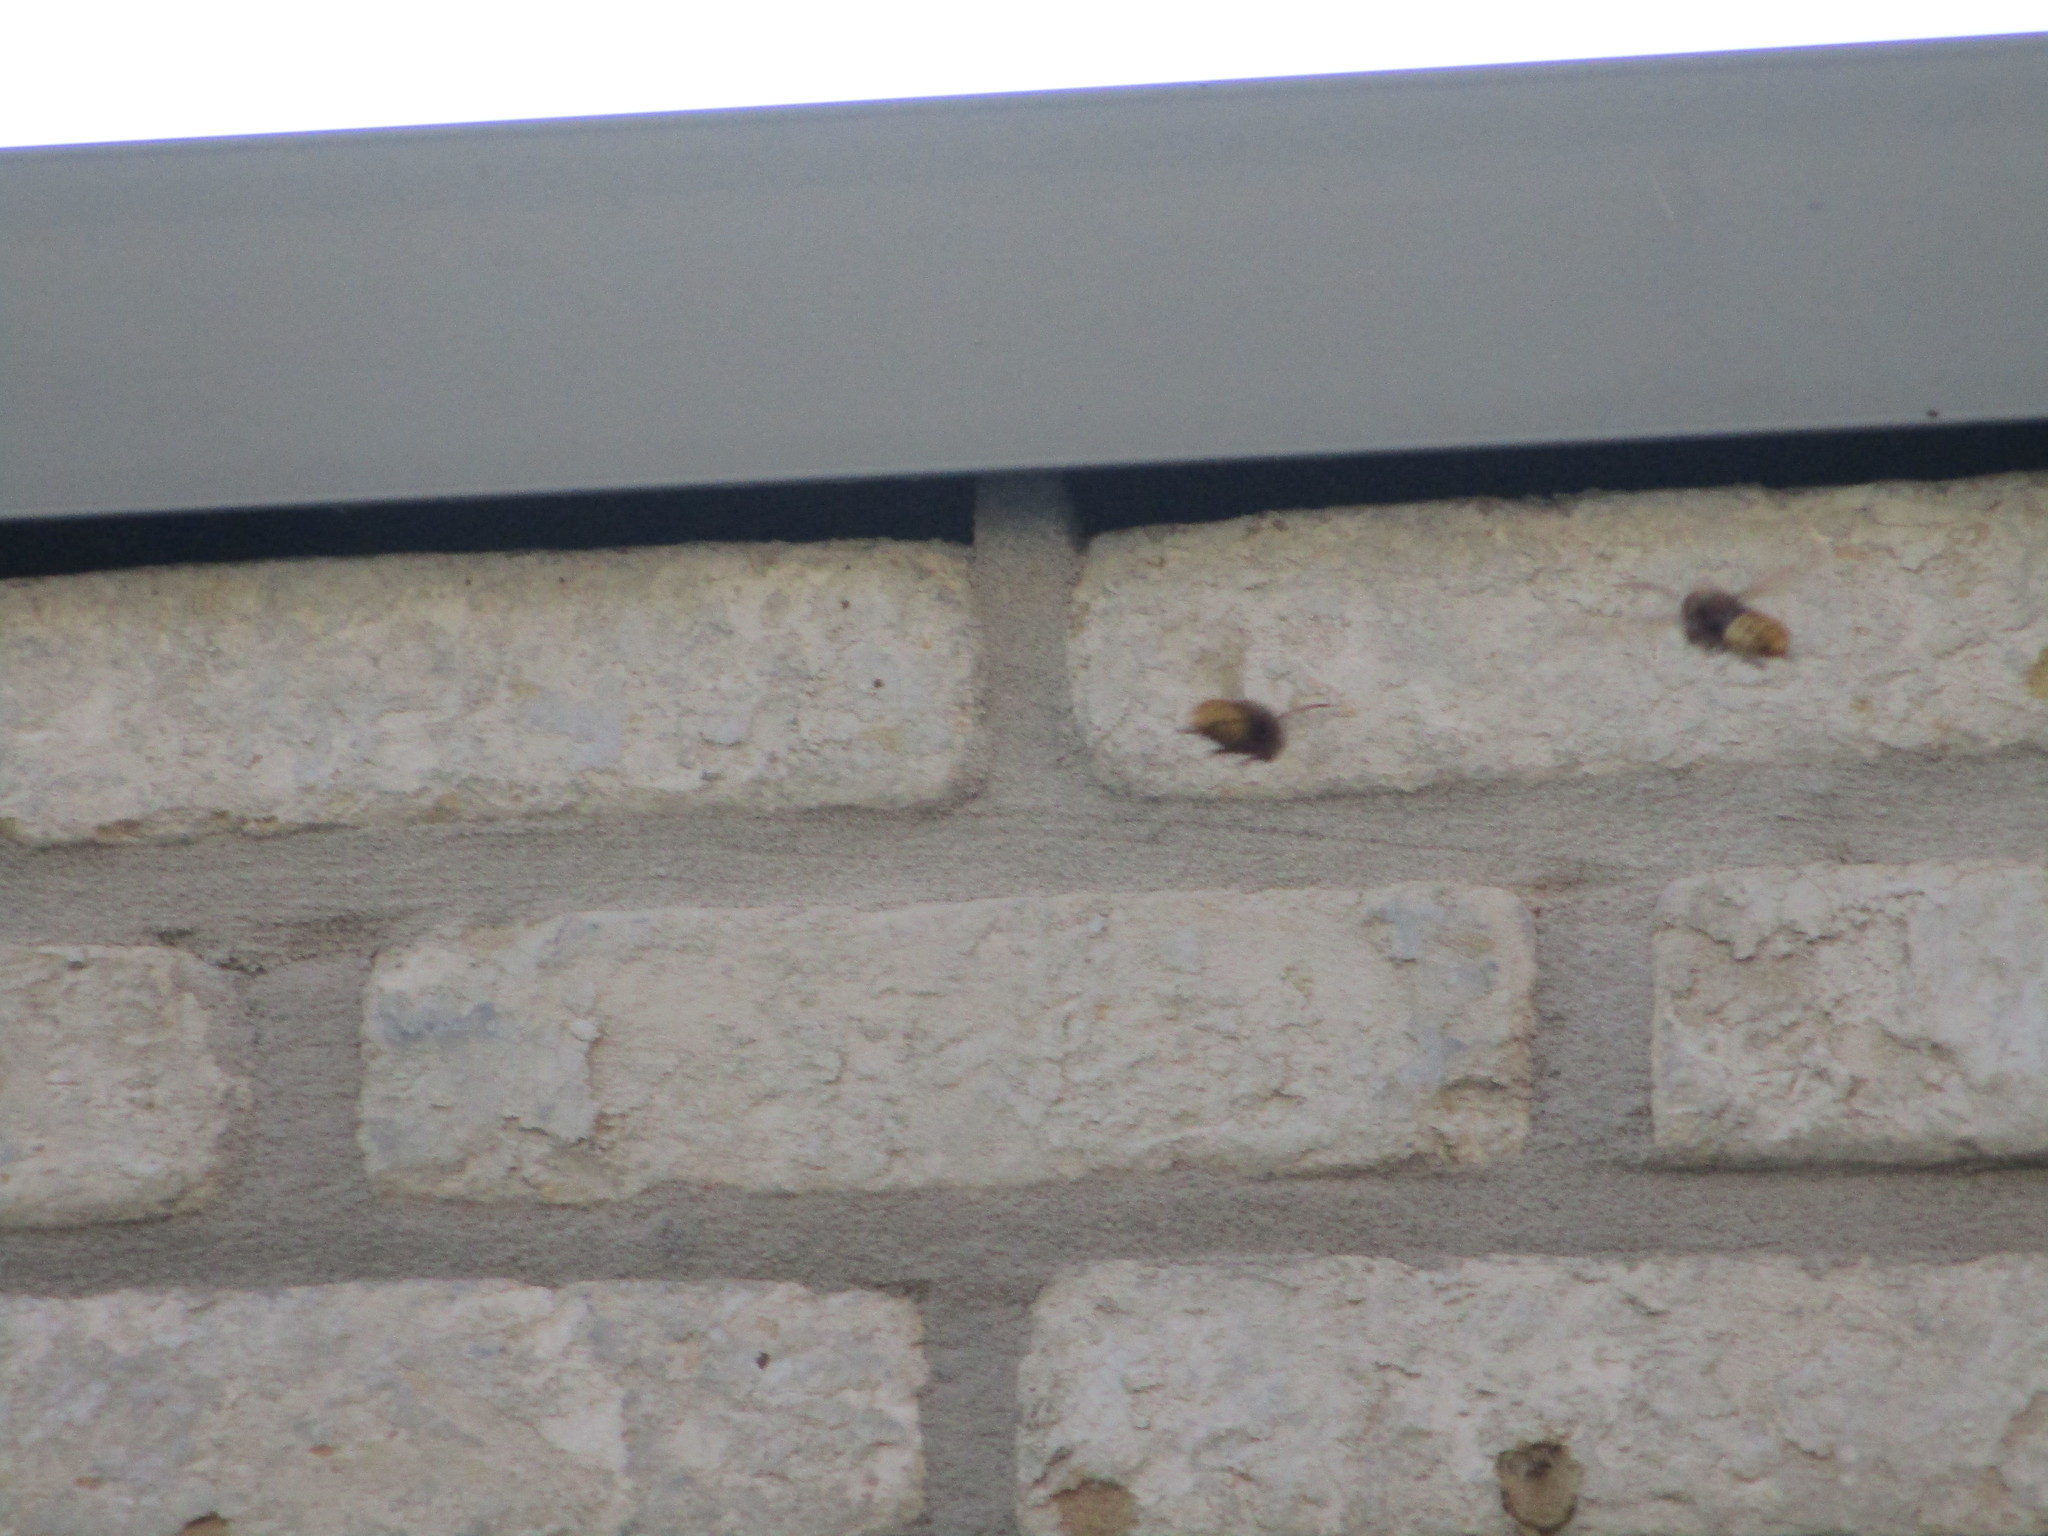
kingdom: Animalia
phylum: Arthropoda
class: Insecta
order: Hymenoptera
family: Vespidae
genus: Vespa
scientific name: Vespa crabro
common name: Hornet
